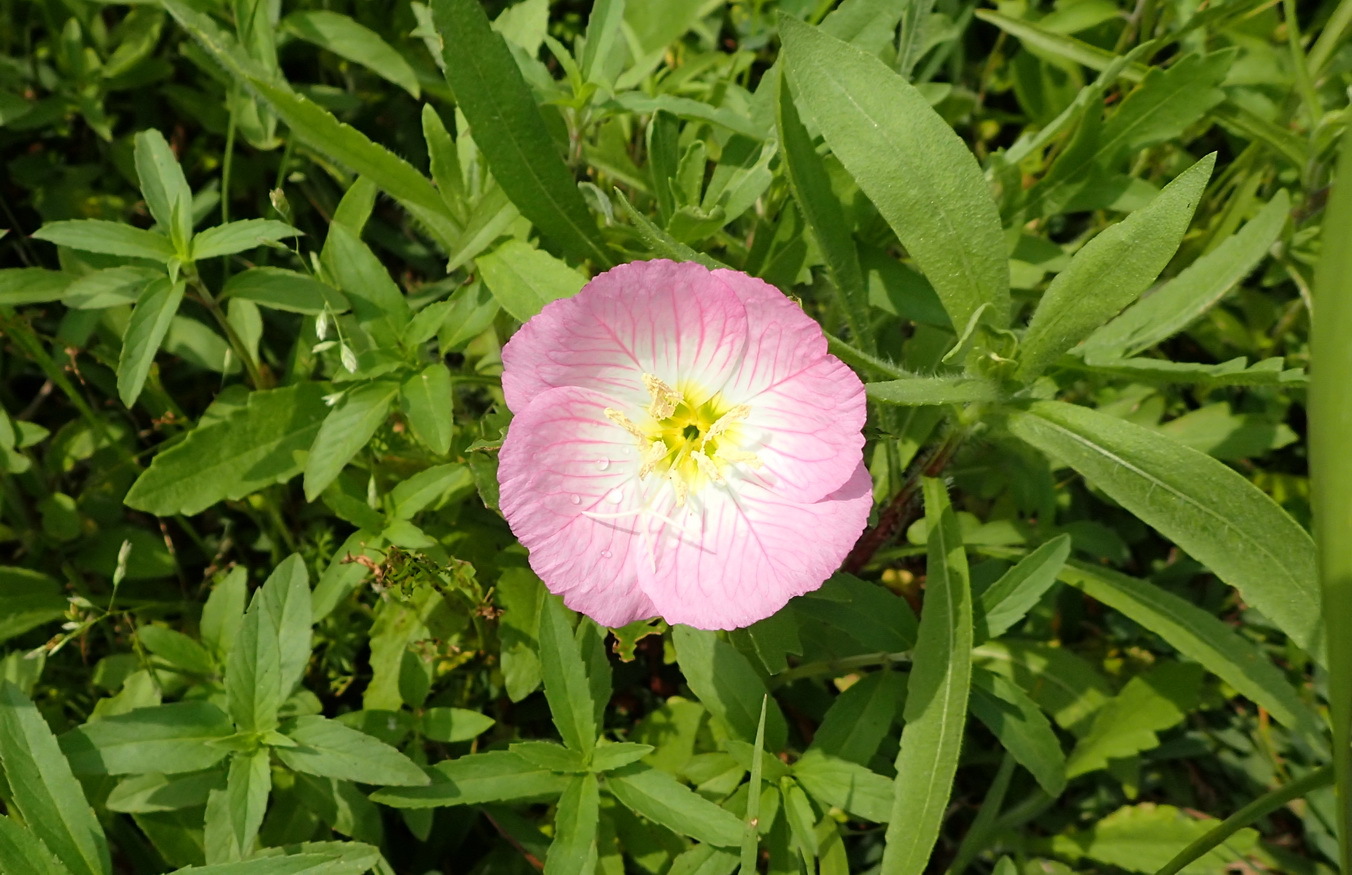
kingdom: Plantae
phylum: Tracheophyta
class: Magnoliopsida
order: Myrtales
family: Onagraceae
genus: Oenothera
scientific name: Oenothera speciosa
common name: White evening-primrose
